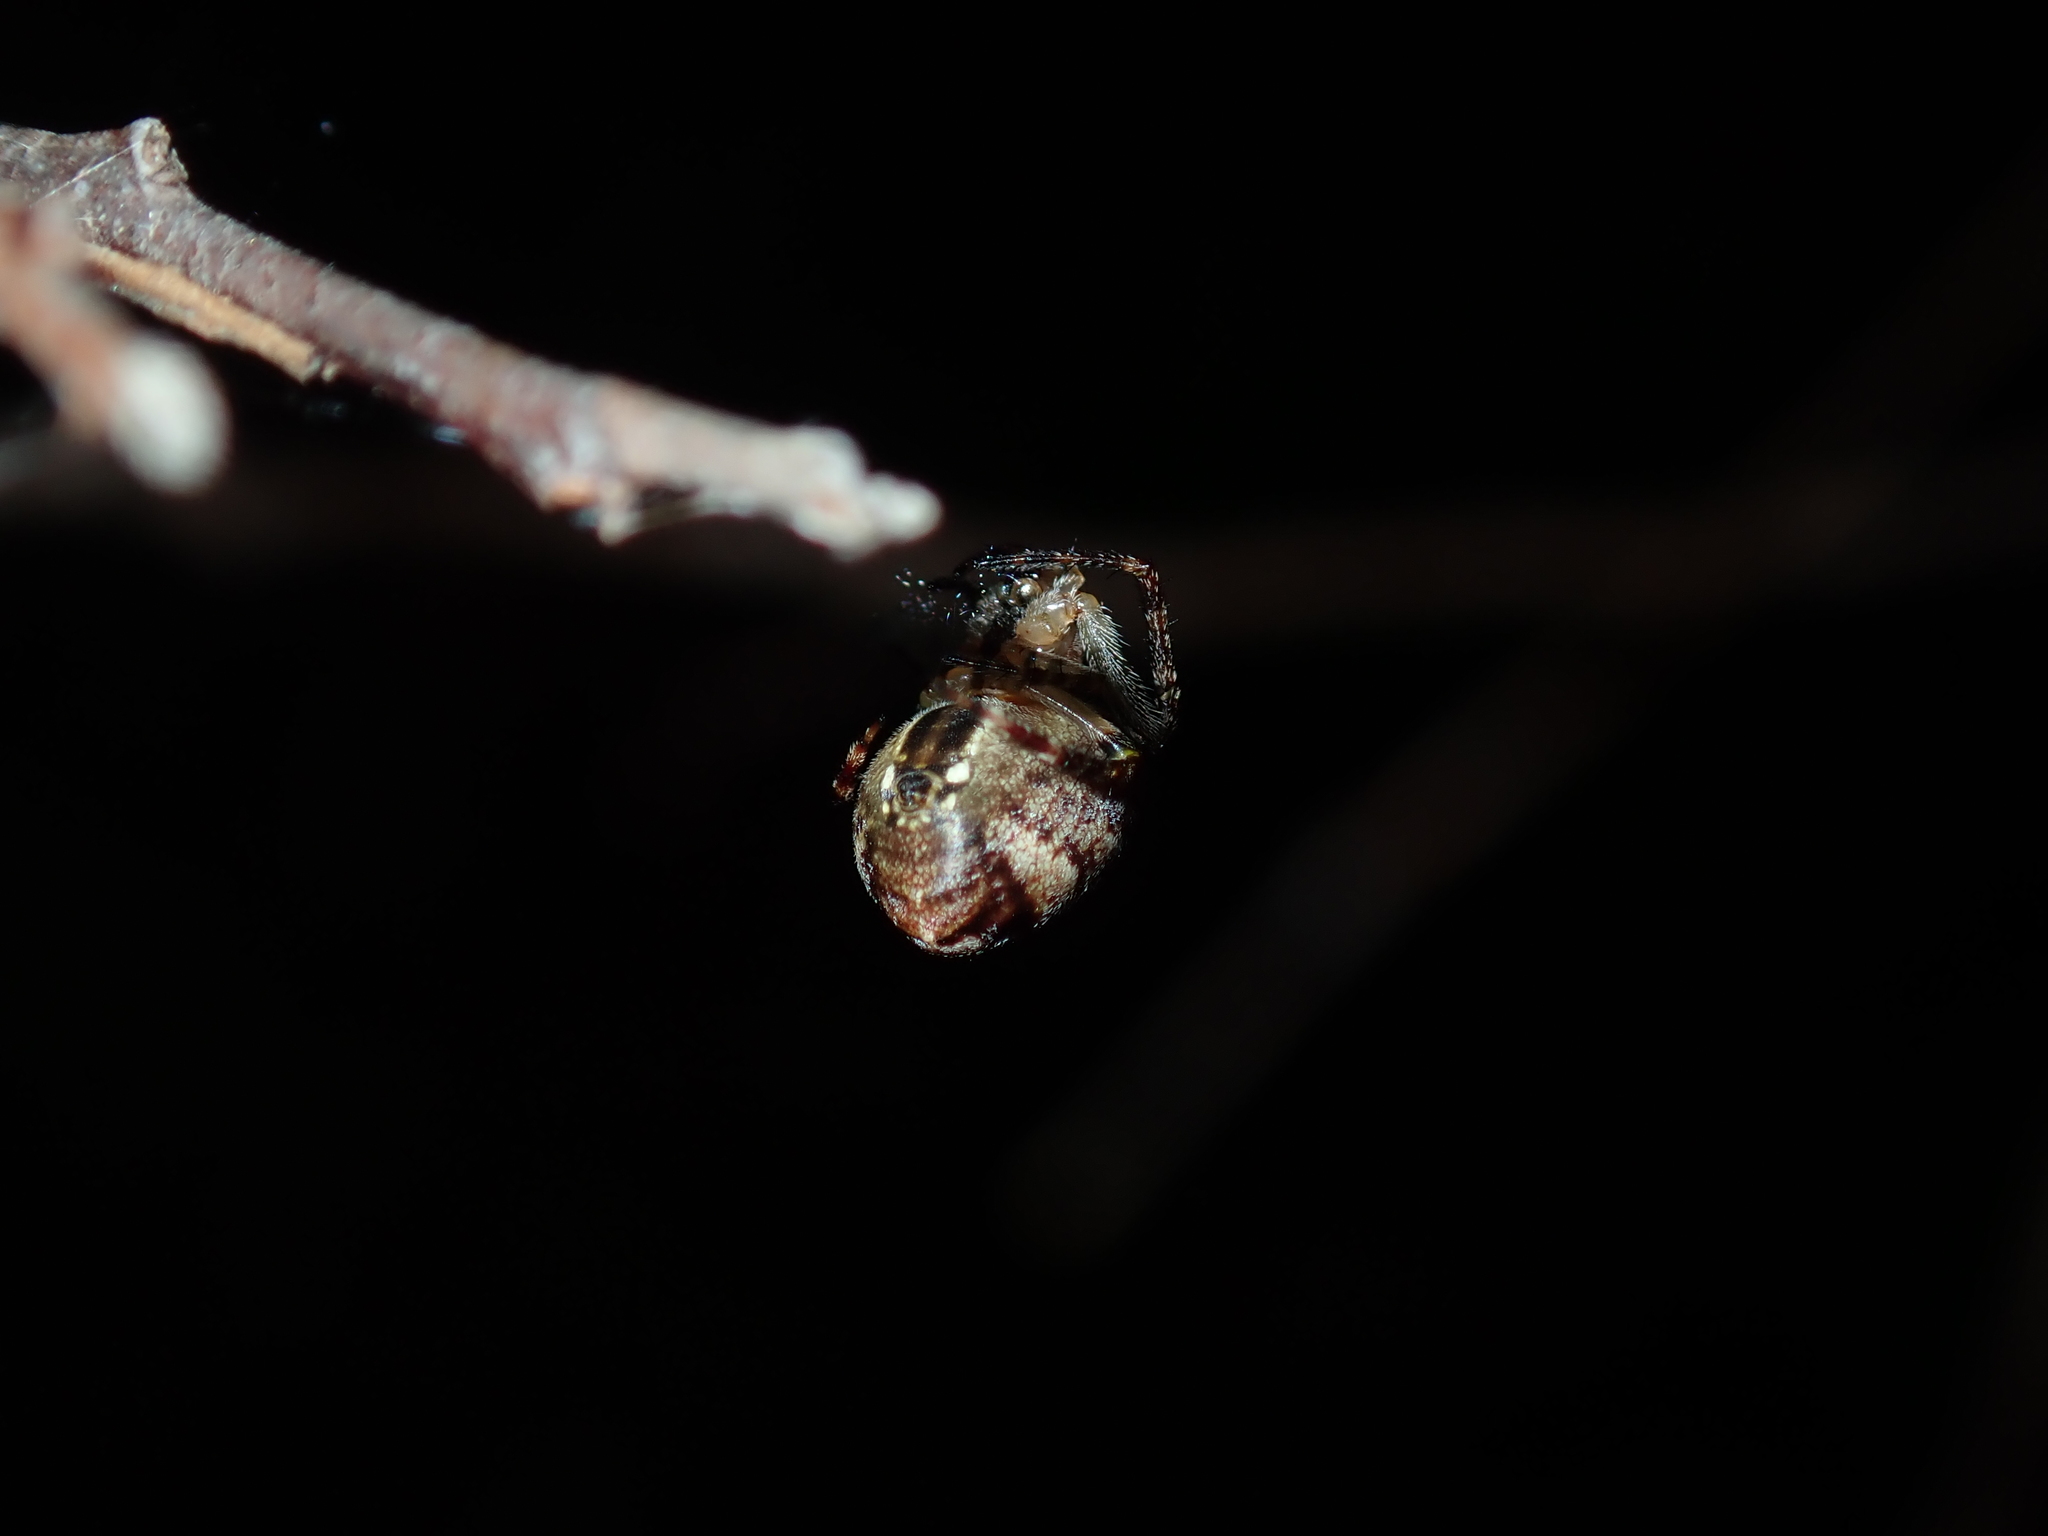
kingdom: Animalia
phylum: Arthropoda
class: Arachnida
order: Araneae
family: Araneidae
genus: Plebs
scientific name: Plebs eburnus
